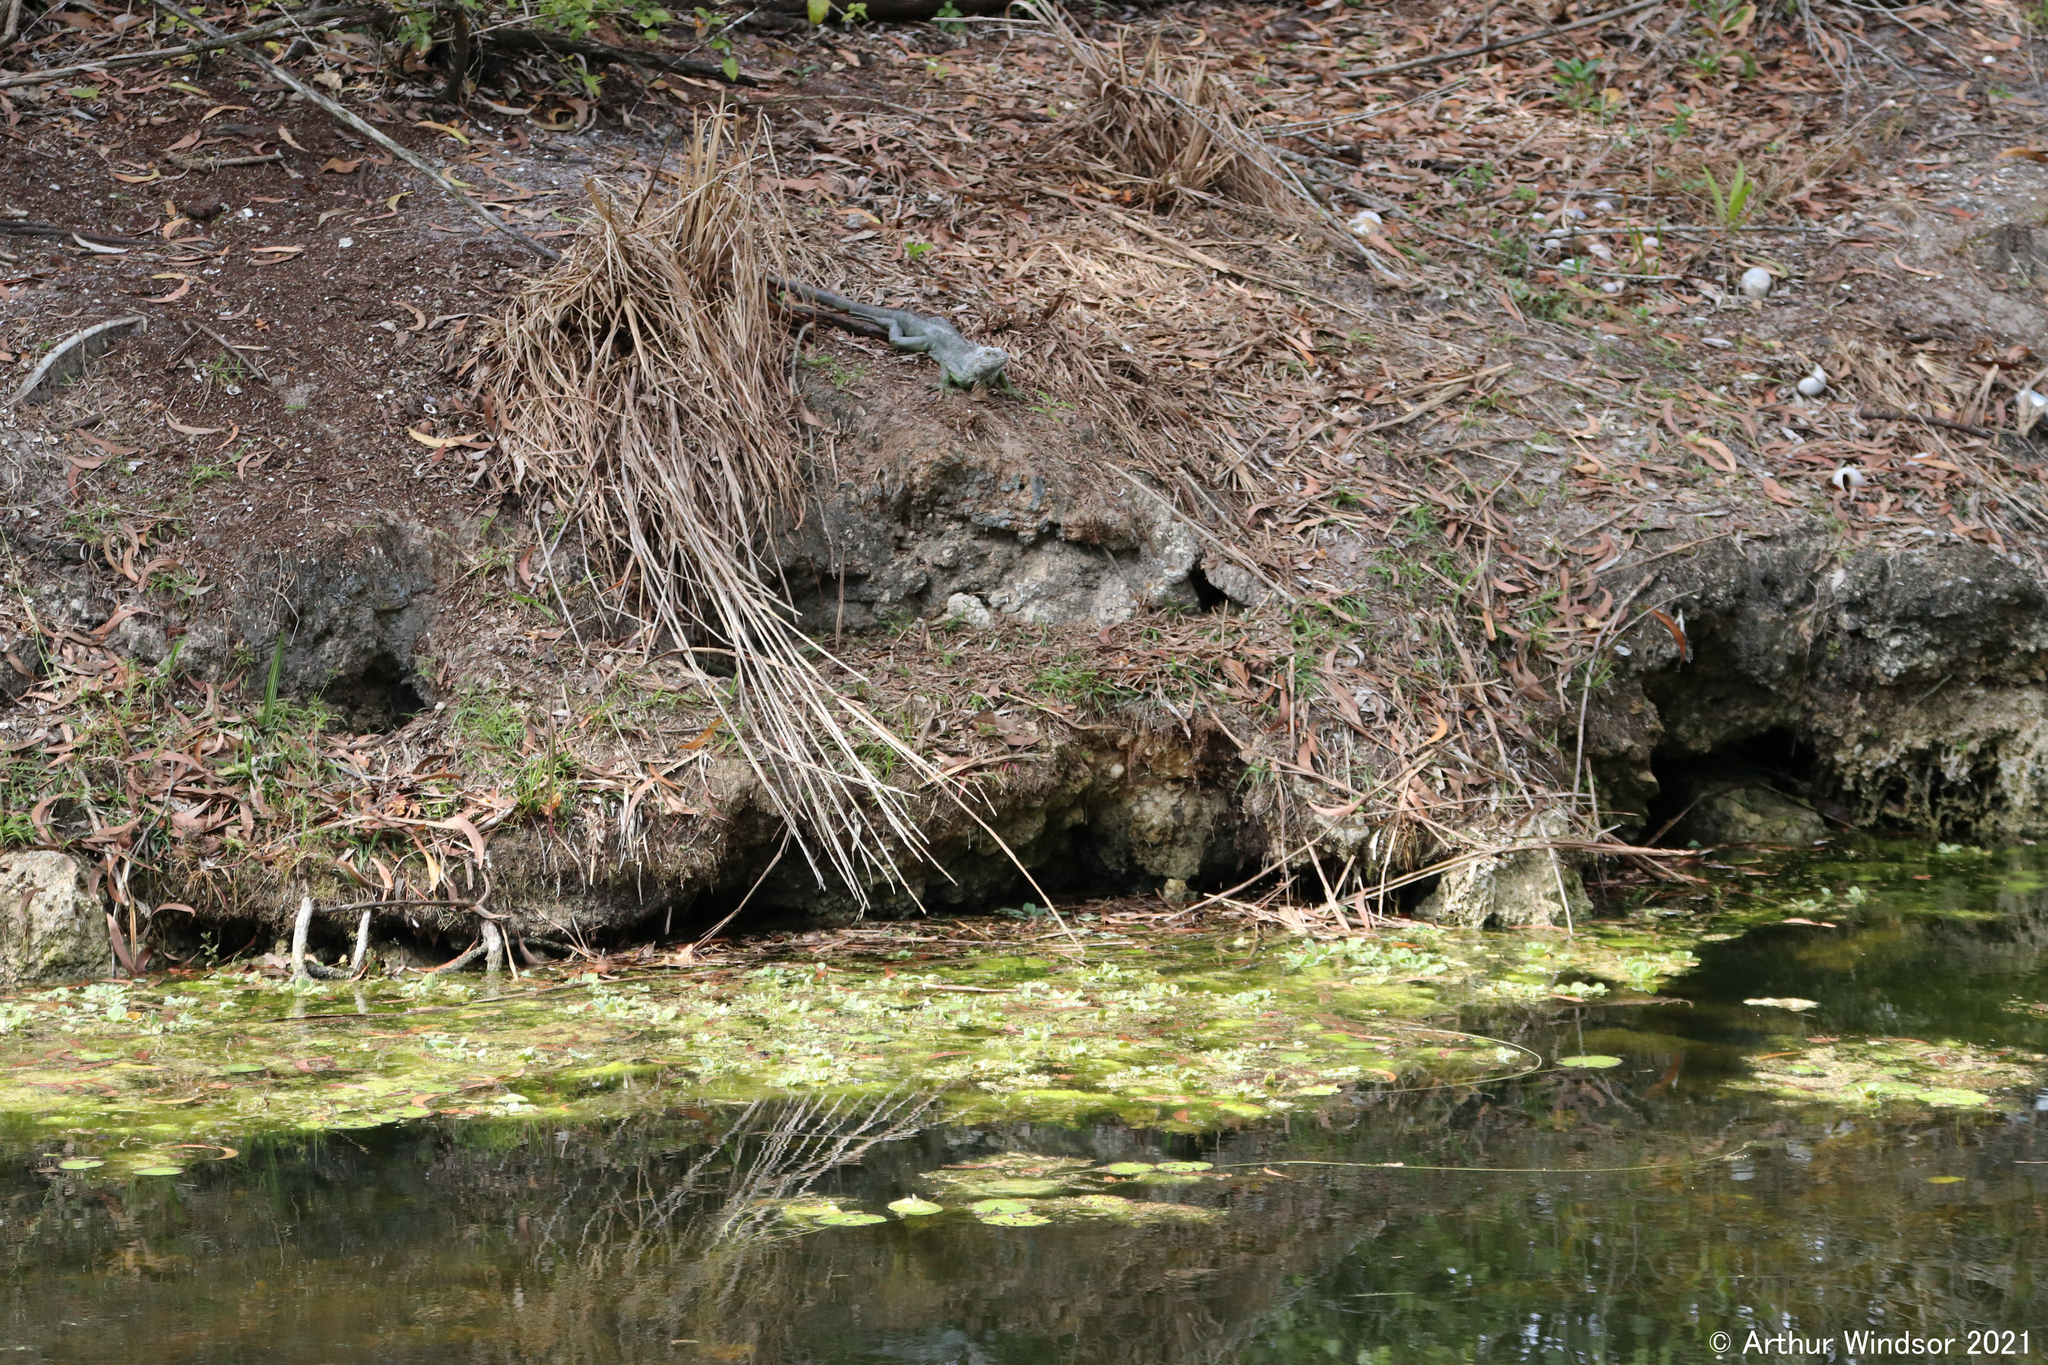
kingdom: Animalia
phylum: Chordata
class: Squamata
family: Iguanidae
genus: Iguana
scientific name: Iguana iguana
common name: Green iguana
